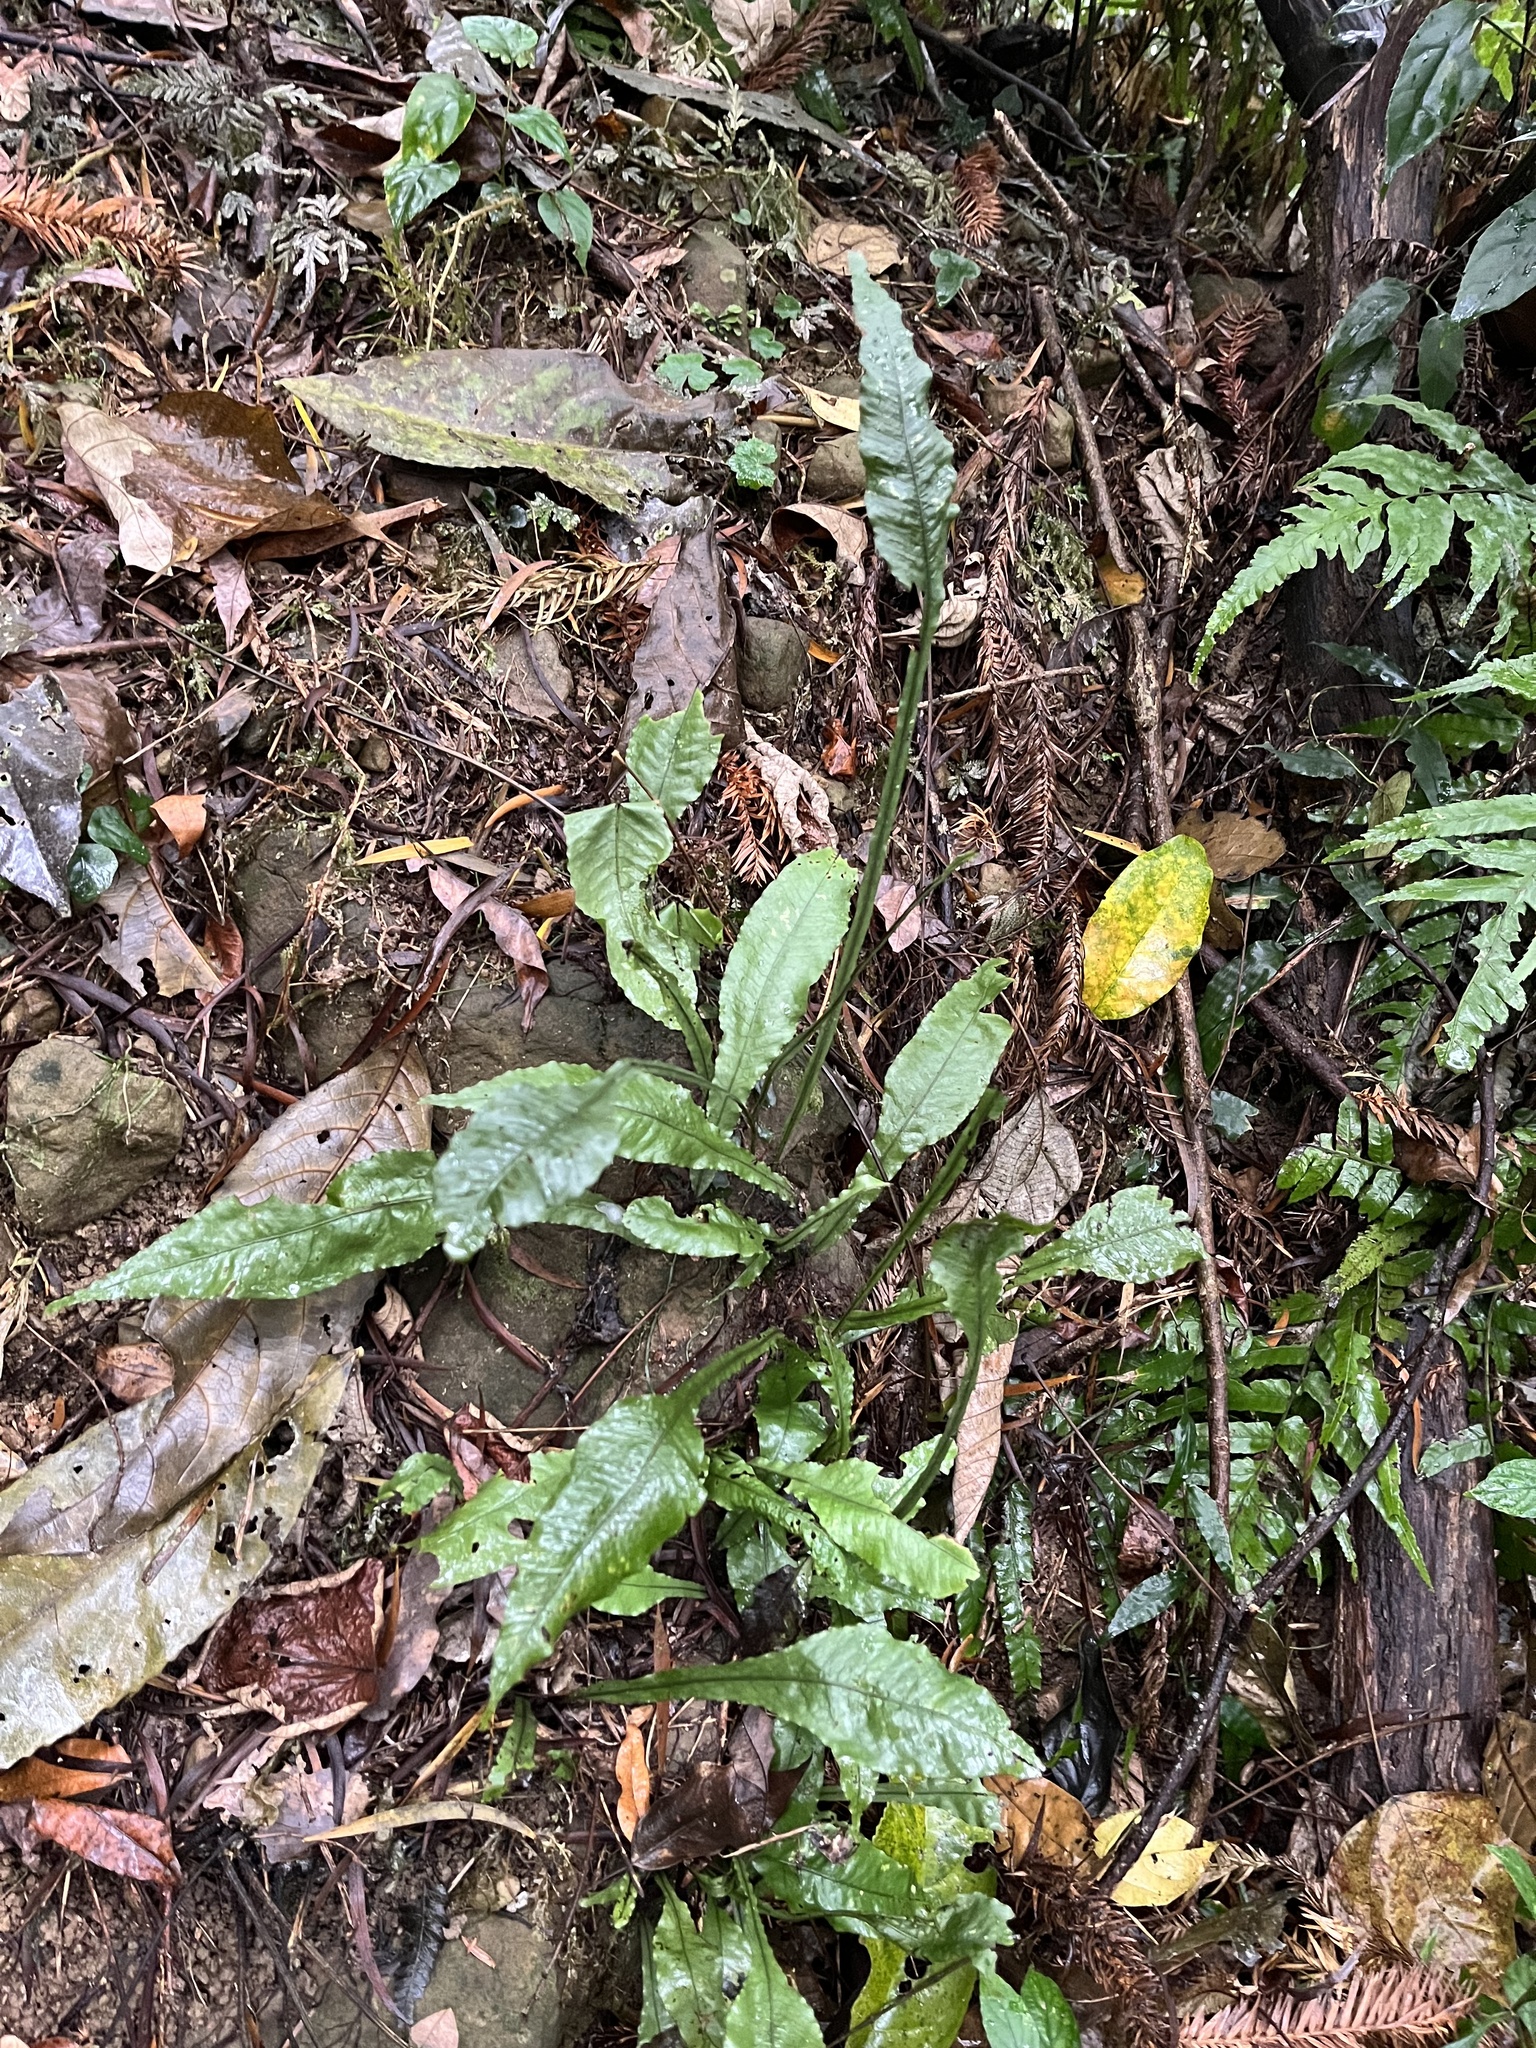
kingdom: Plantae
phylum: Tracheophyta
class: Polypodiopsida
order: Polypodiales
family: Polypodiaceae
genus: Leptochilus
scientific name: Leptochilus wrightii
